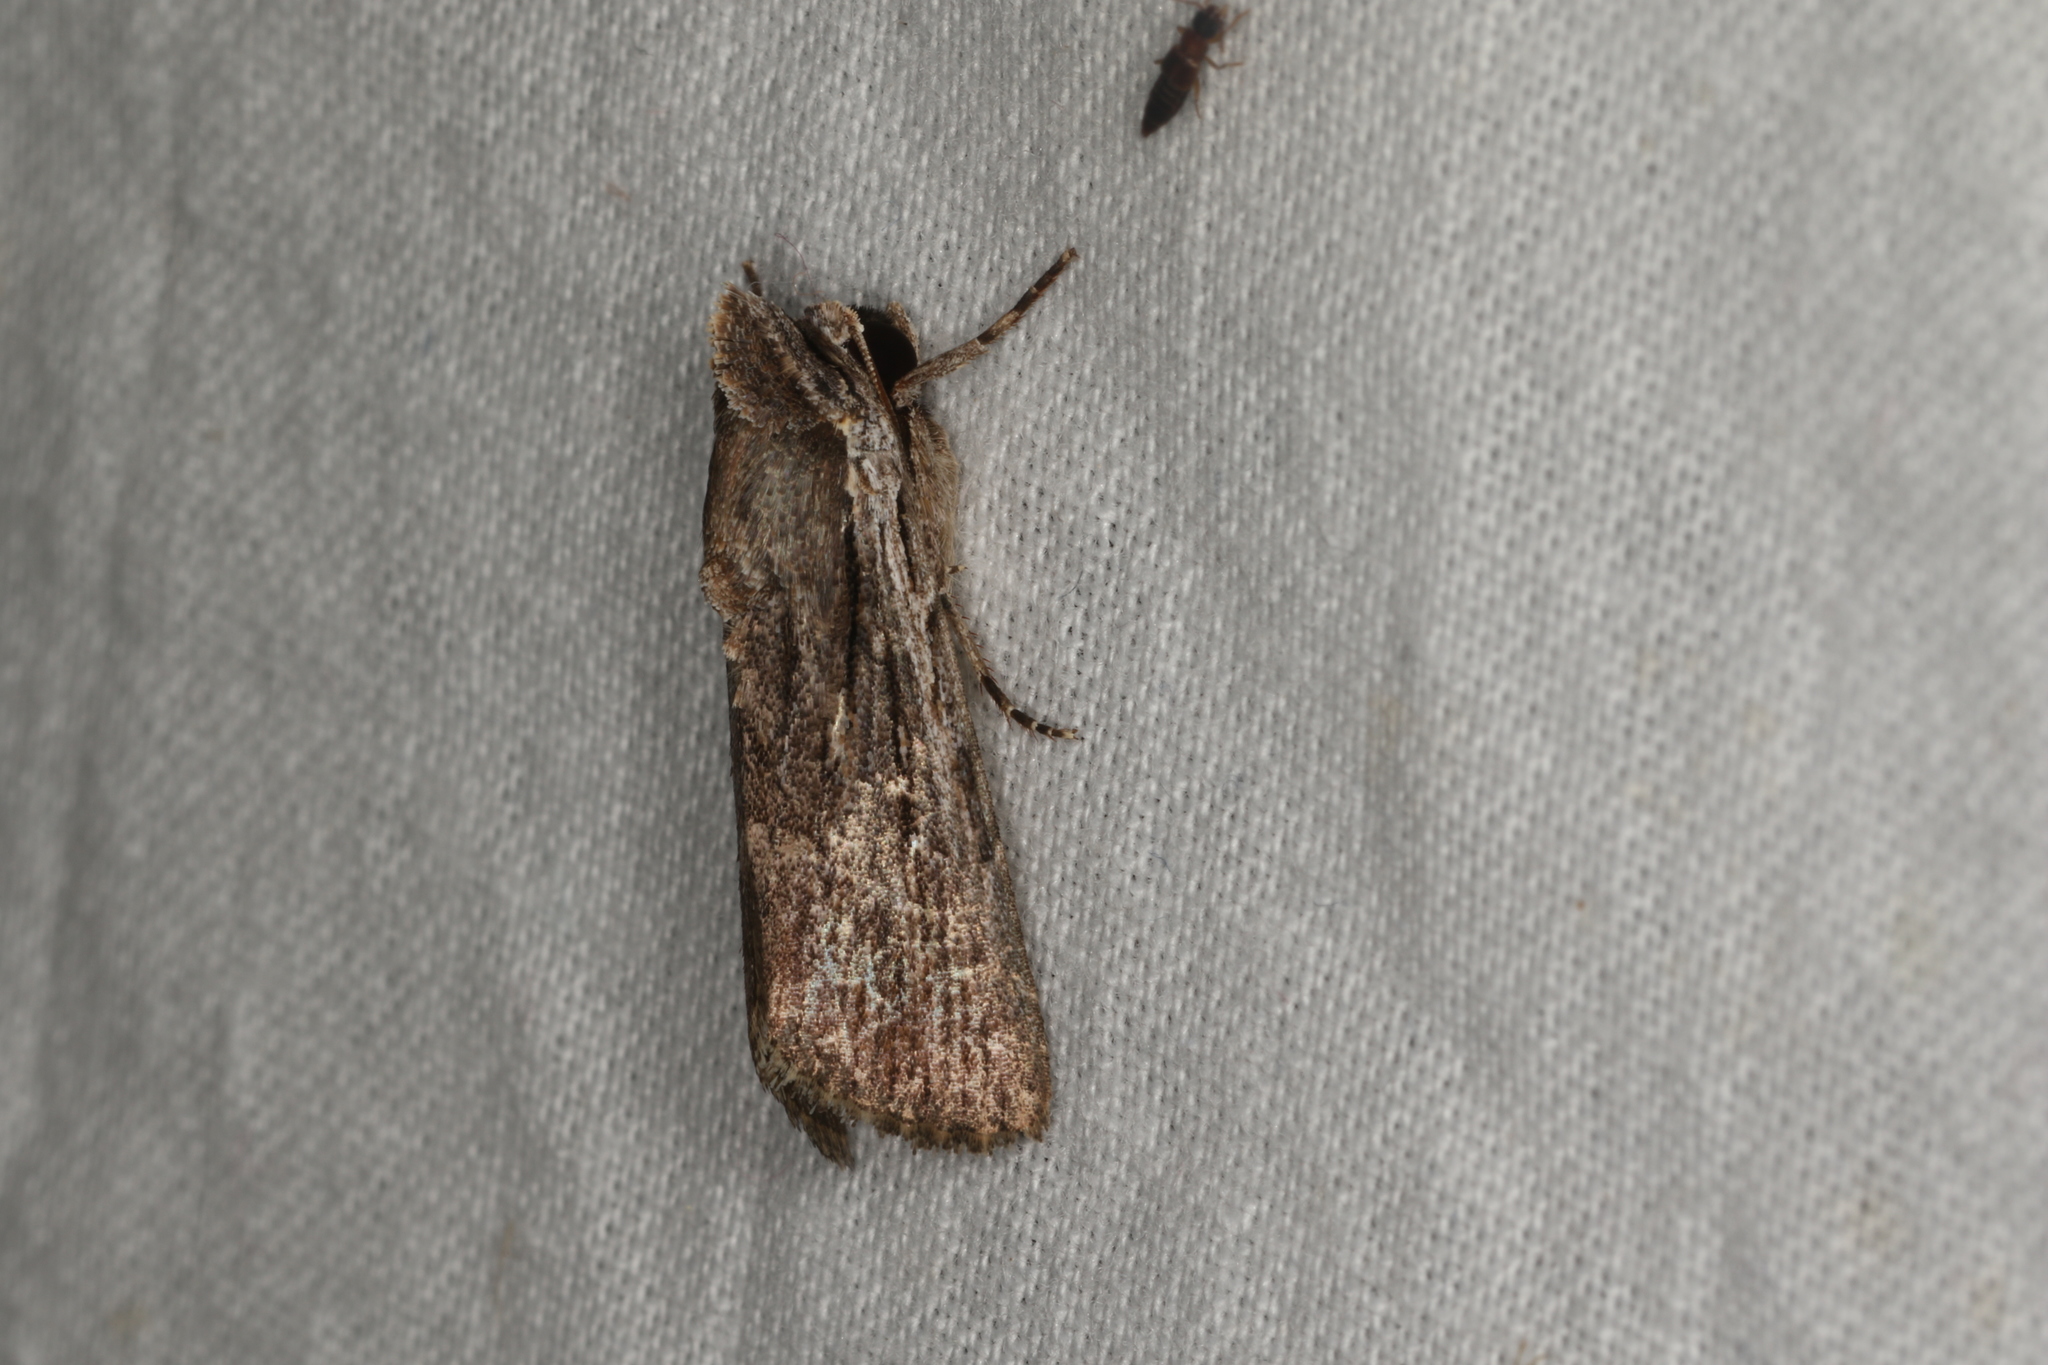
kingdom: Animalia
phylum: Arthropoda
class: Insecta
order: Lepidoptera
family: Noctuidae
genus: Neogalea
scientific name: Neogalea sunia
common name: Lantana stick caterpillar
